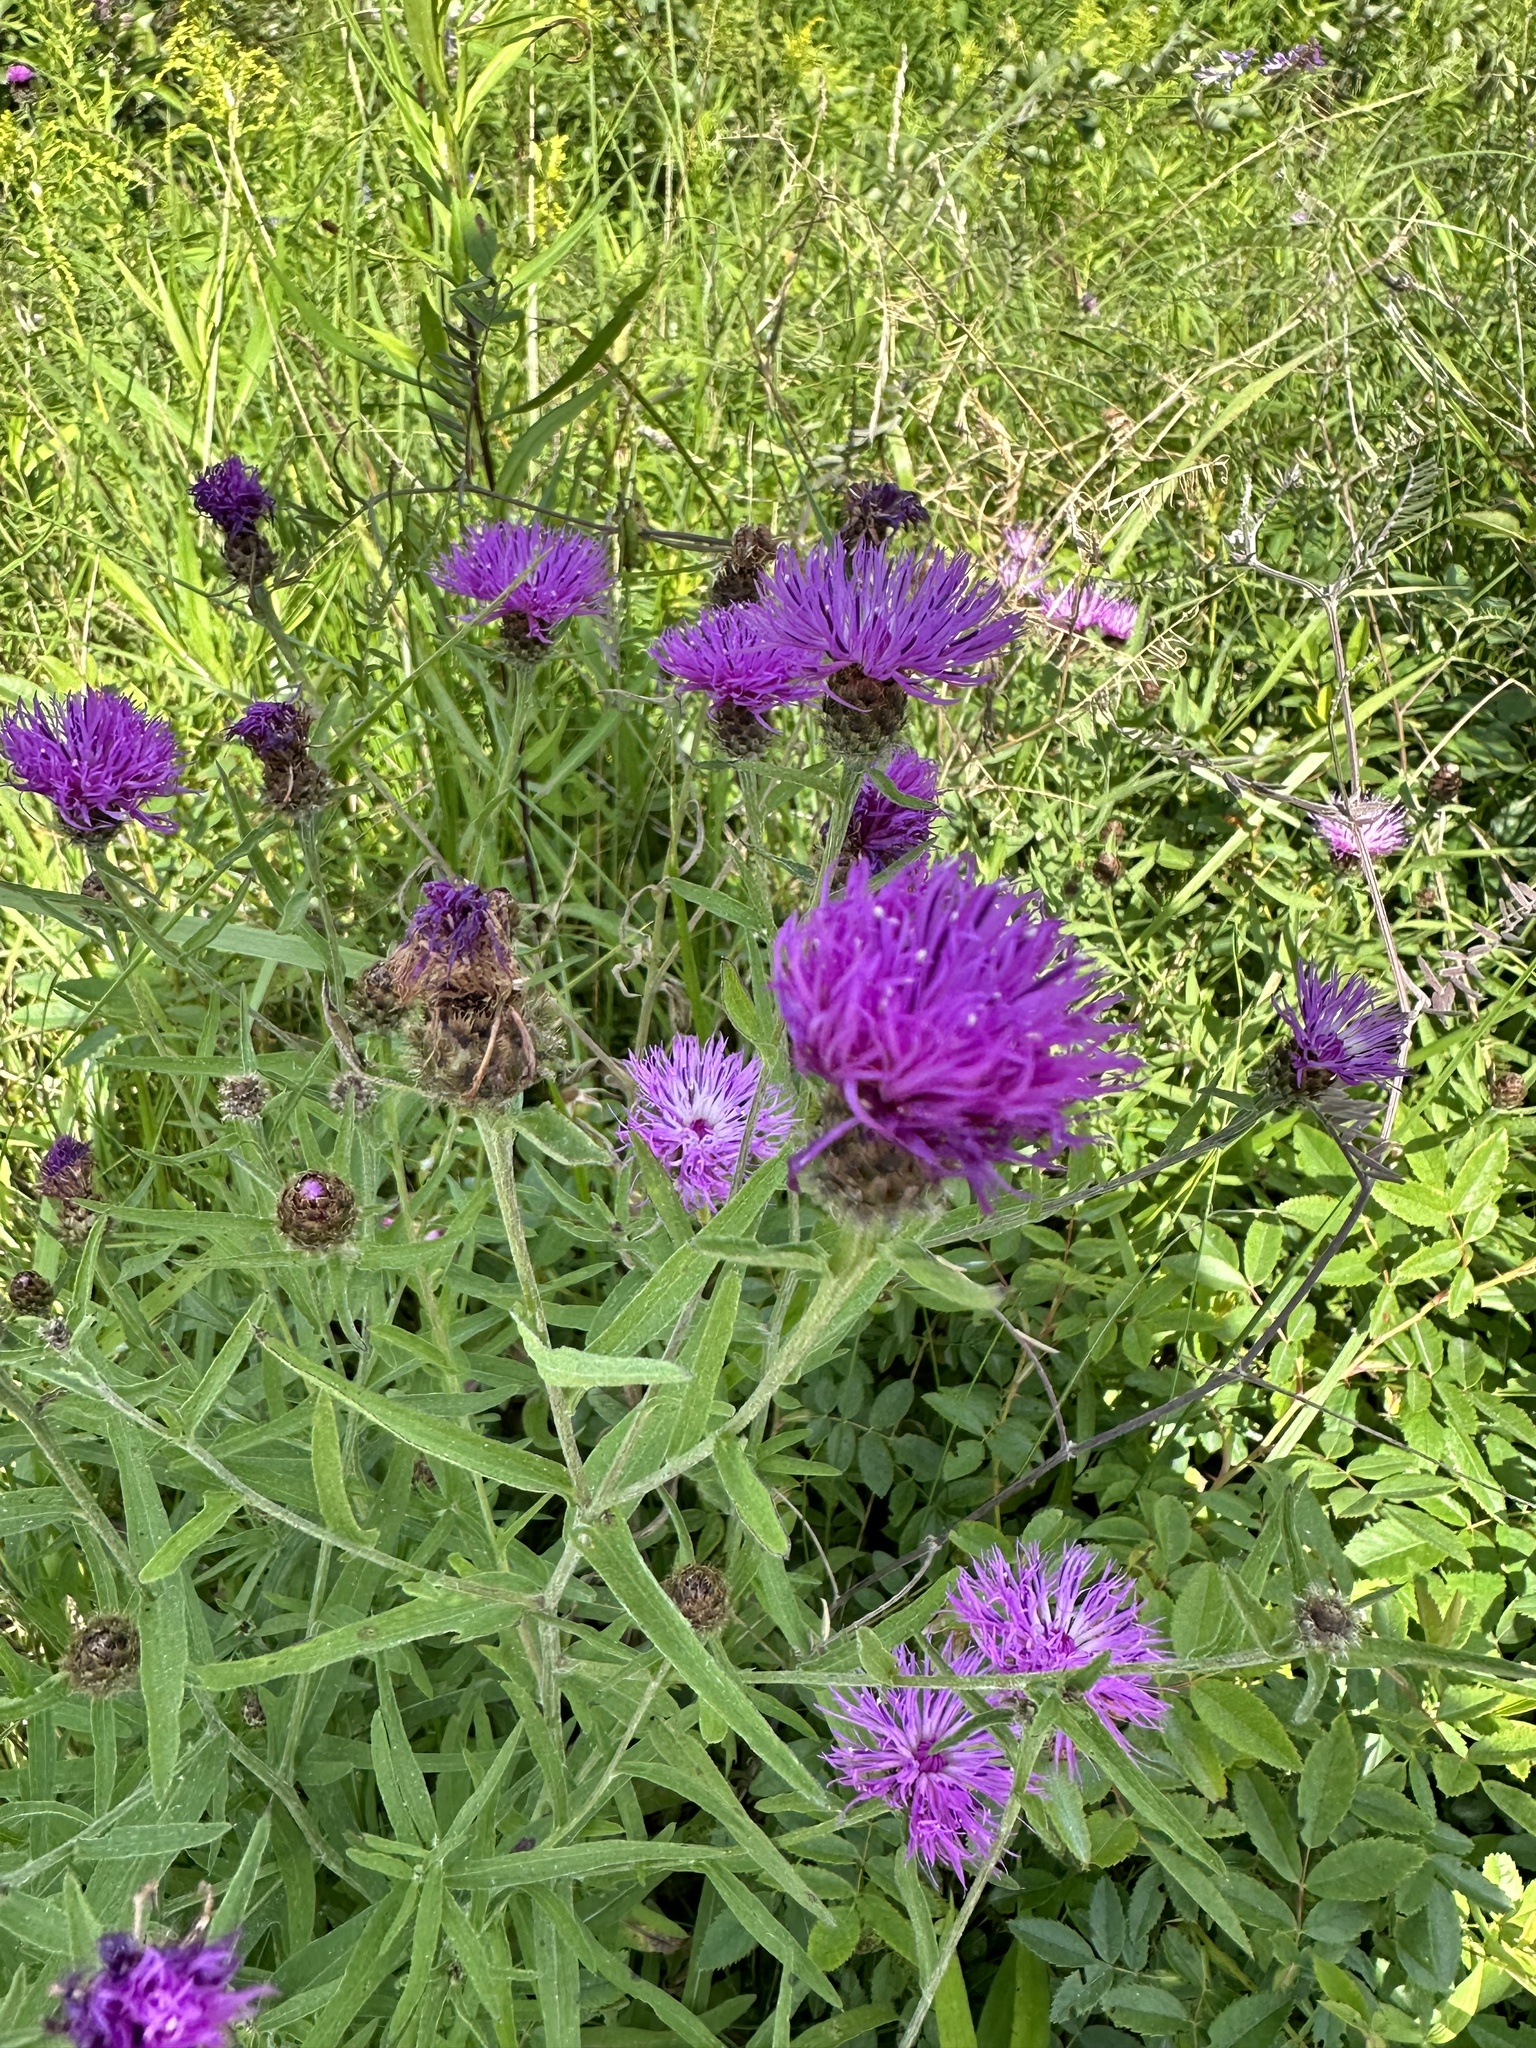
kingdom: Plantae
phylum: Tracheophyta
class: Magnoliopsida
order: Asterales
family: Asteraceae
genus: Centaurea
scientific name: Centaurea nigra
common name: Lesser knapweed
